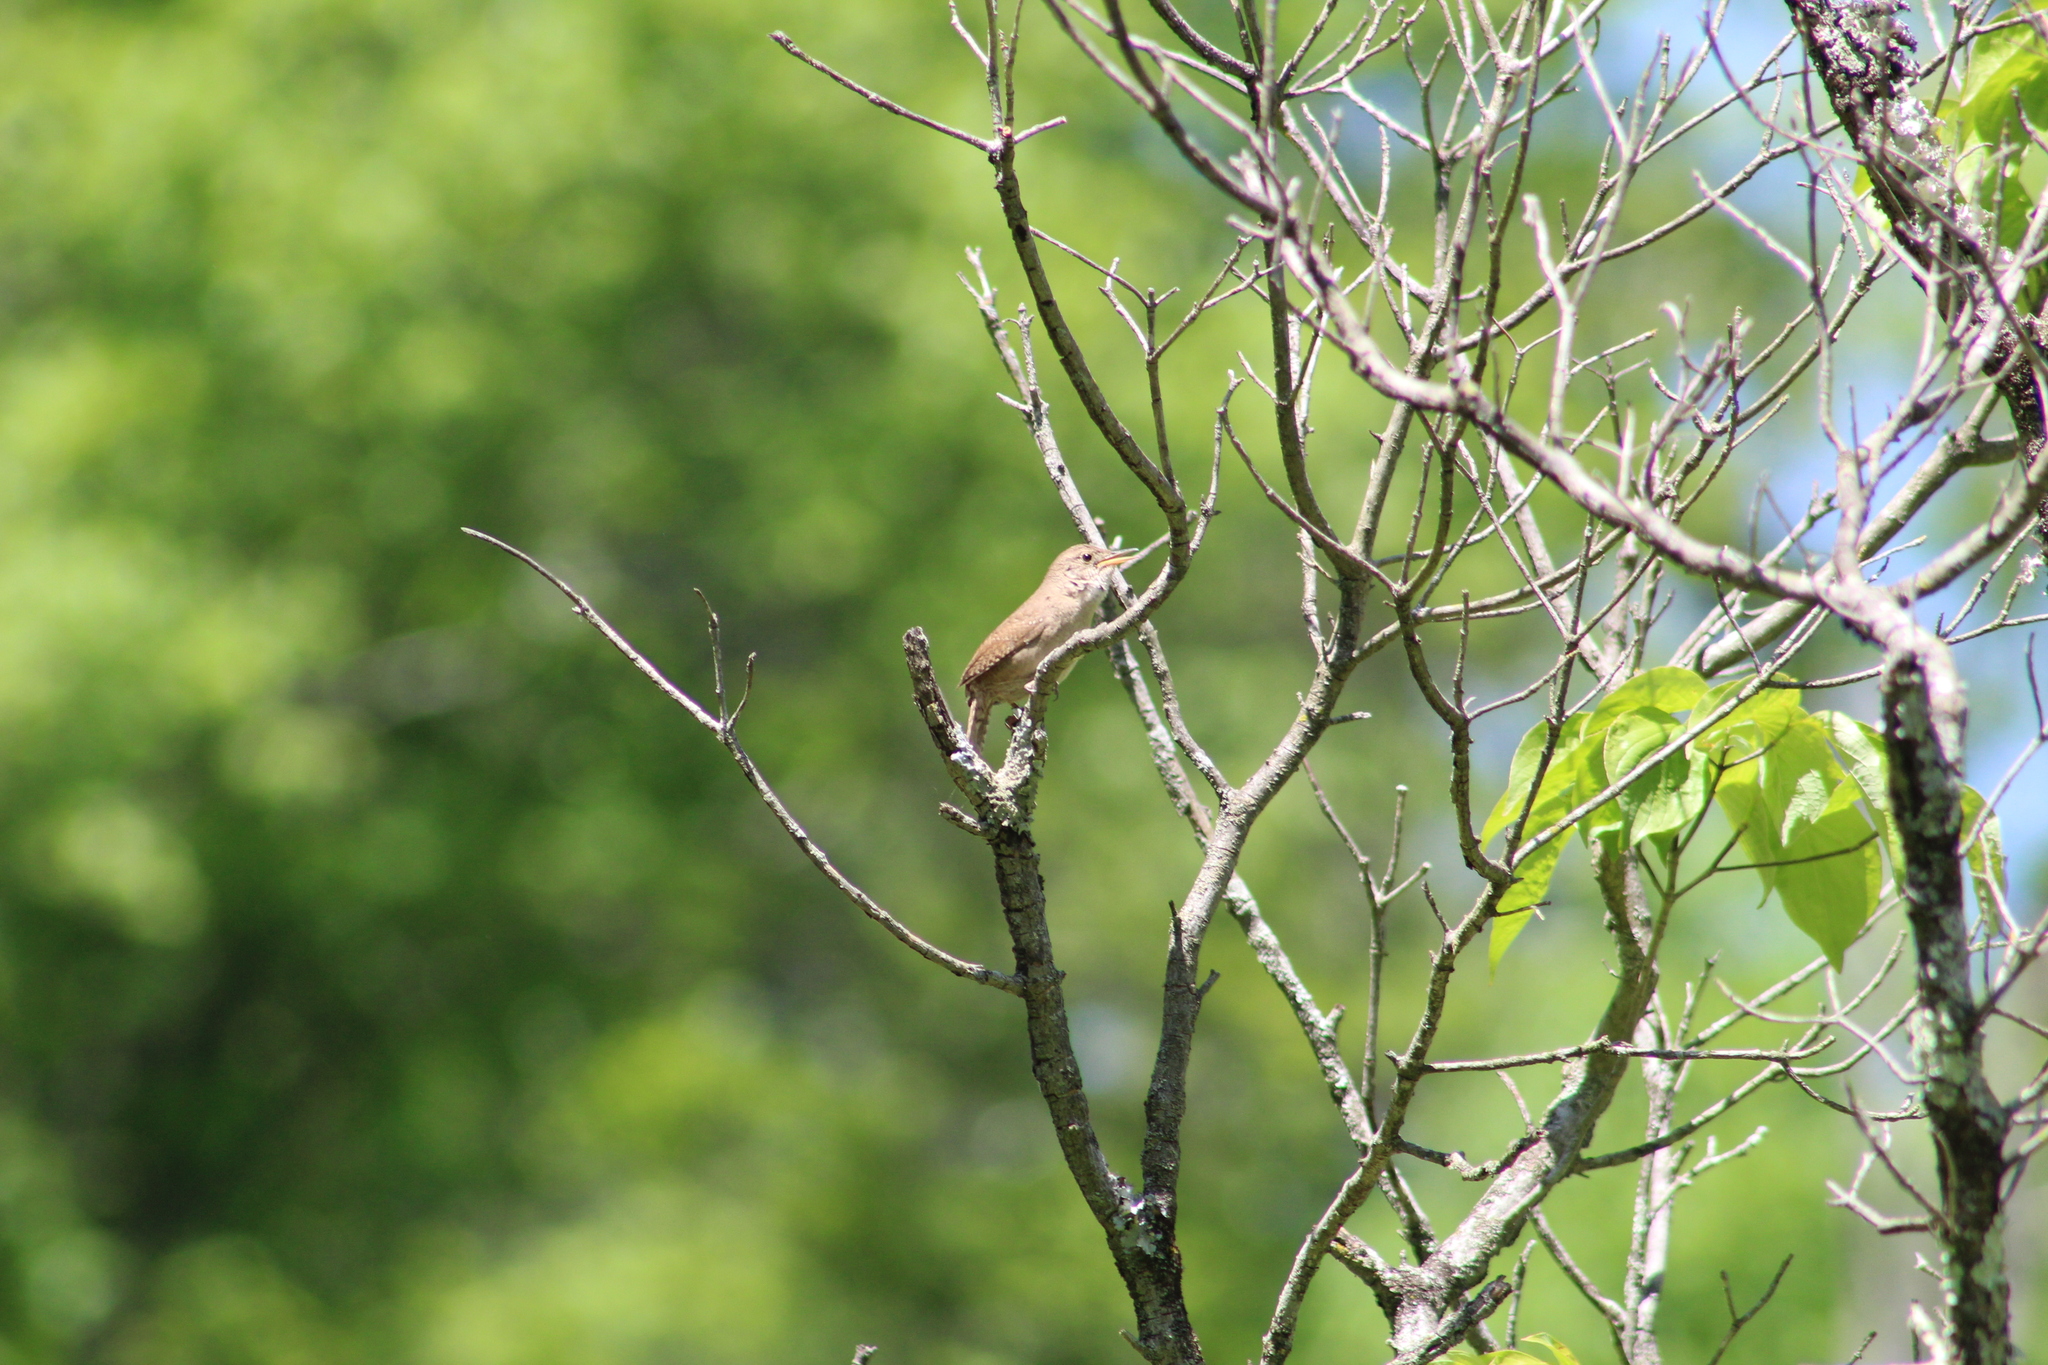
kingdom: Animalia
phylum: Chordata
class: Aves
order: Passeriformes
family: Troglodytidae
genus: Troglodytes
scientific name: Troglodytes aedon
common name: House wren
